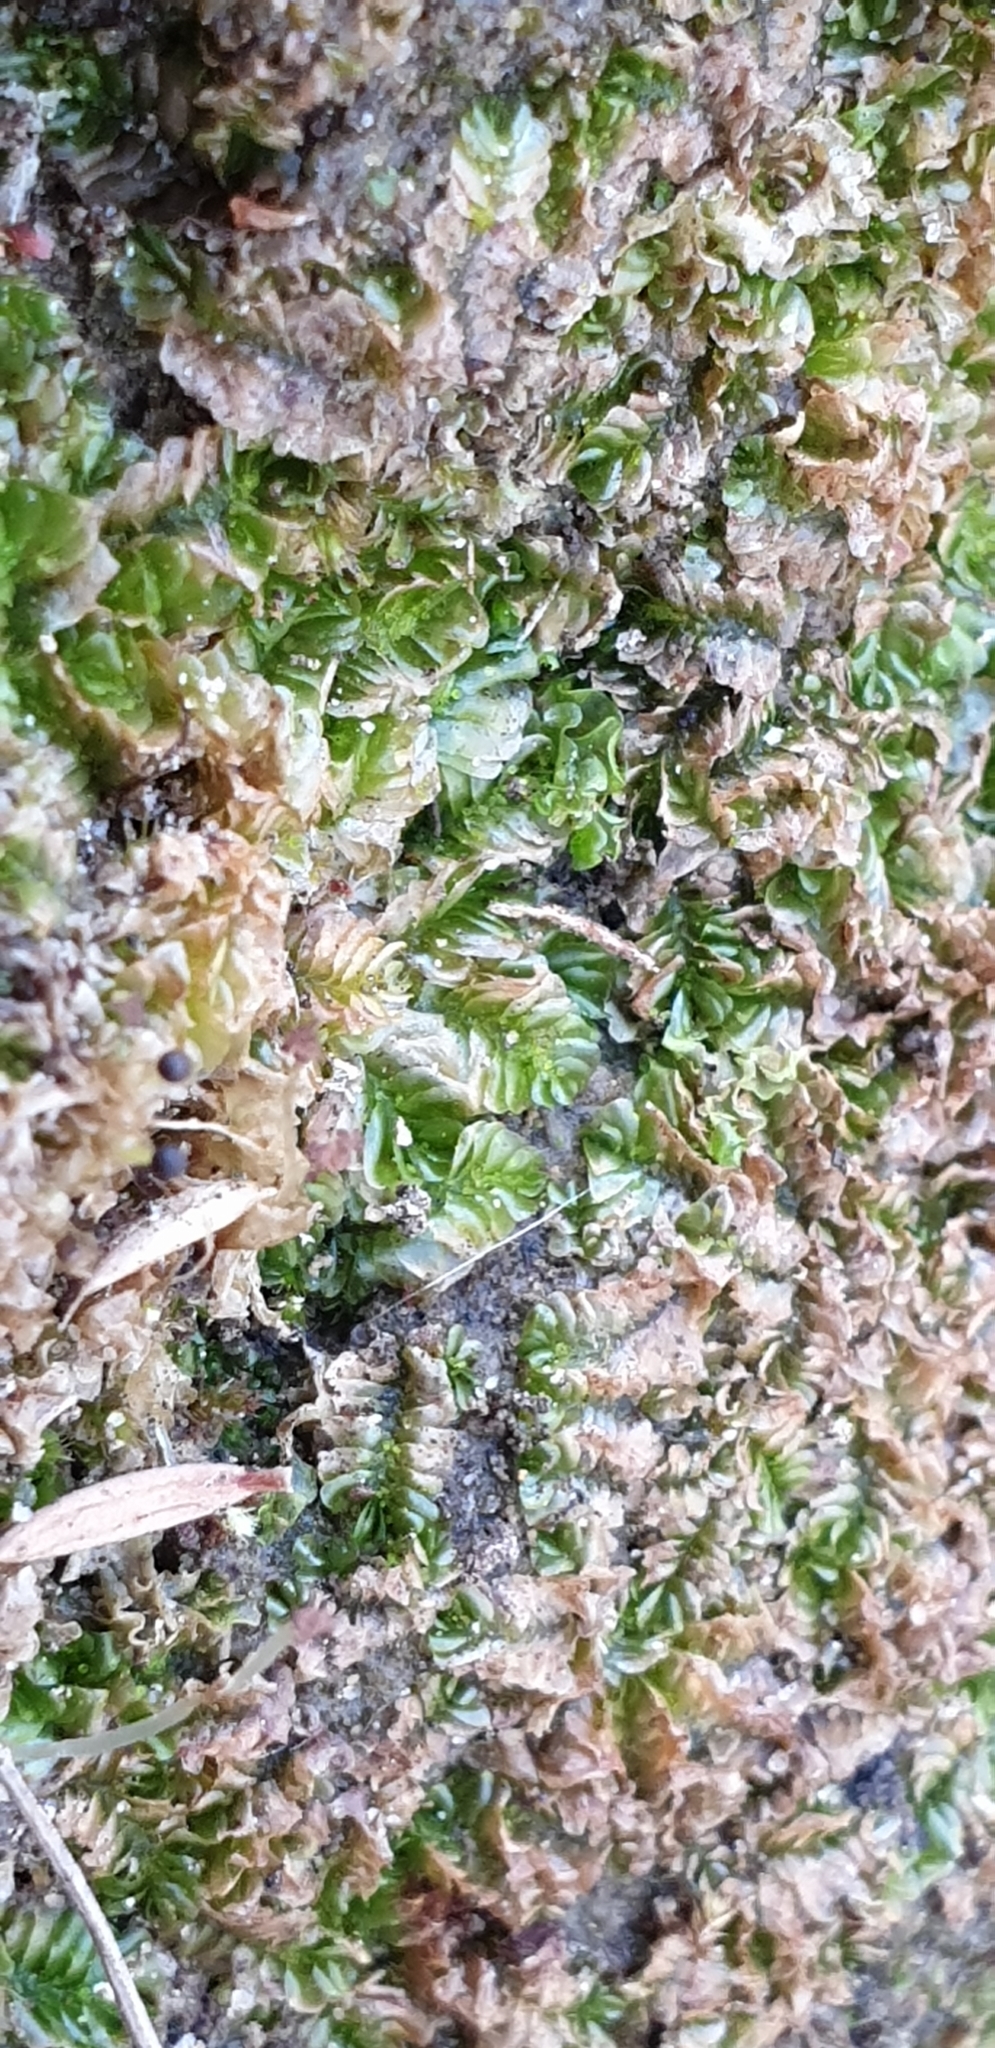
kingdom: Plantae
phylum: Marchantiophyta
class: Jungermanniopsida
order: Jungermanniales
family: Acrobolbaceae
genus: Lethocolea
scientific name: Lethocolea pansa
